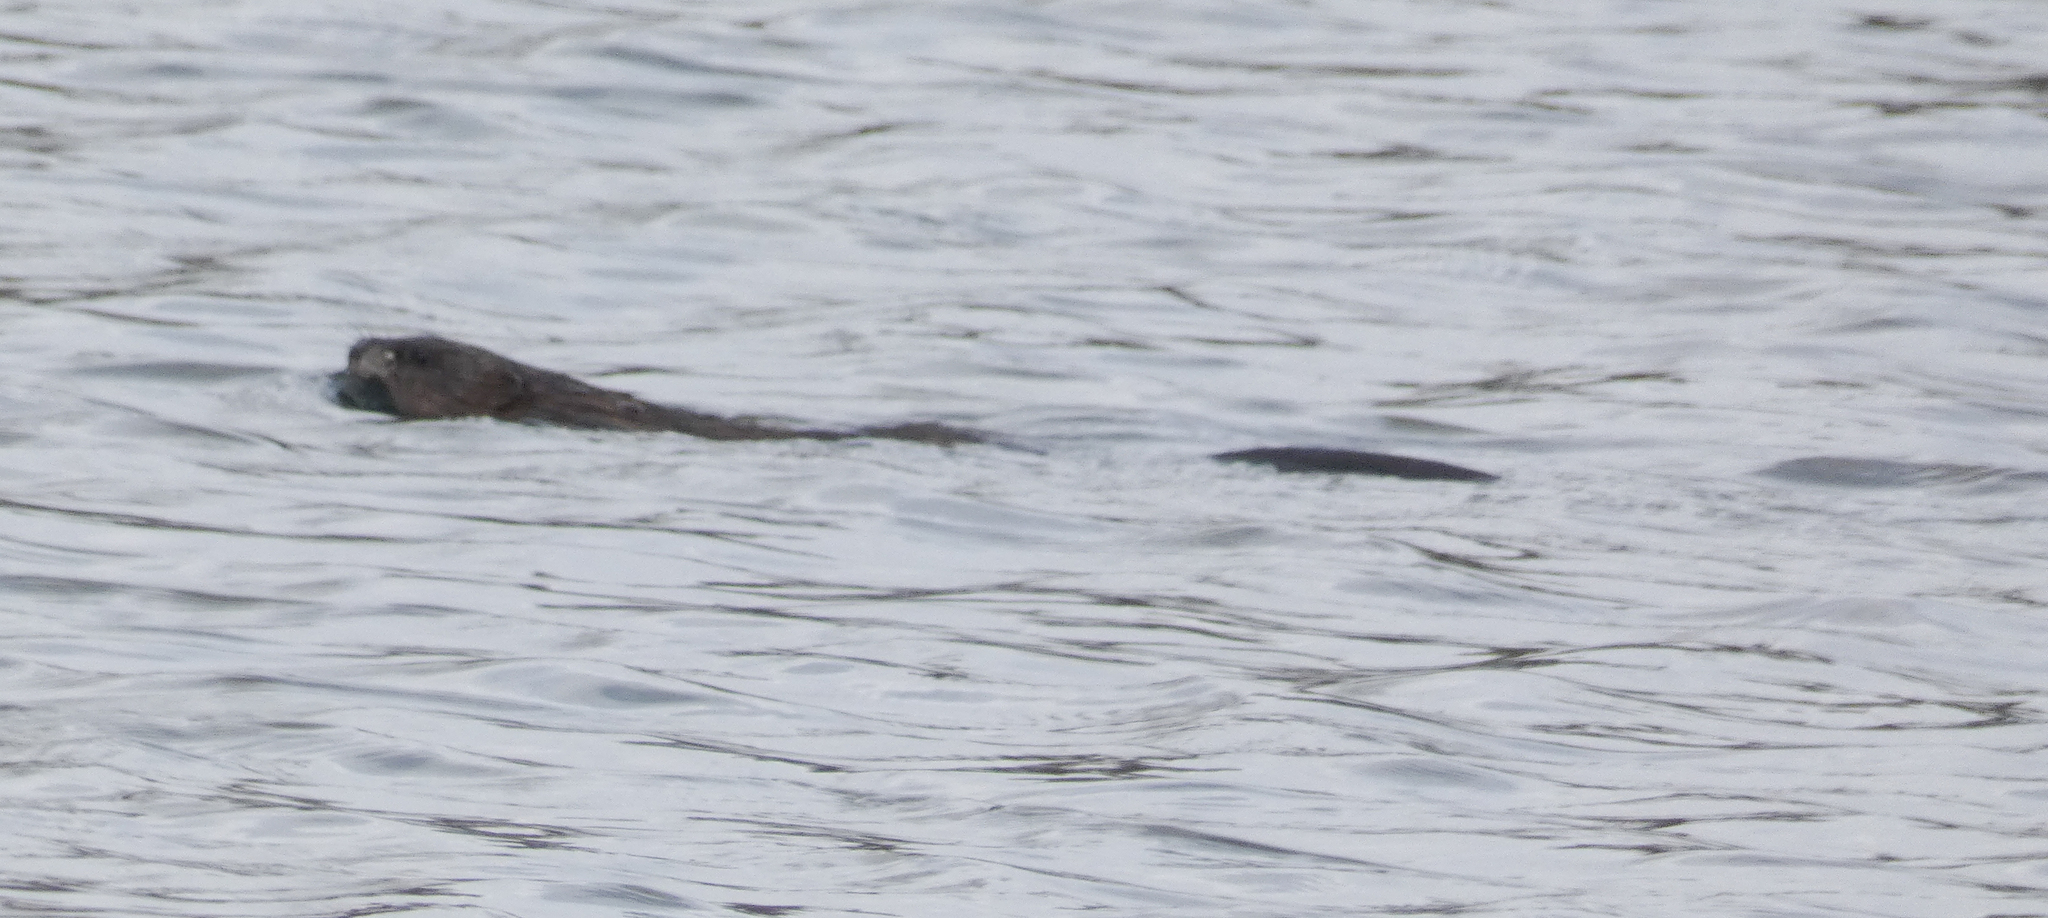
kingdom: Animalia
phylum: Chordata
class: Mammalia
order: Rodentia
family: Cricetidae
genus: Ondatra
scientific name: Ondatra zibethicus
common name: Muskrat
